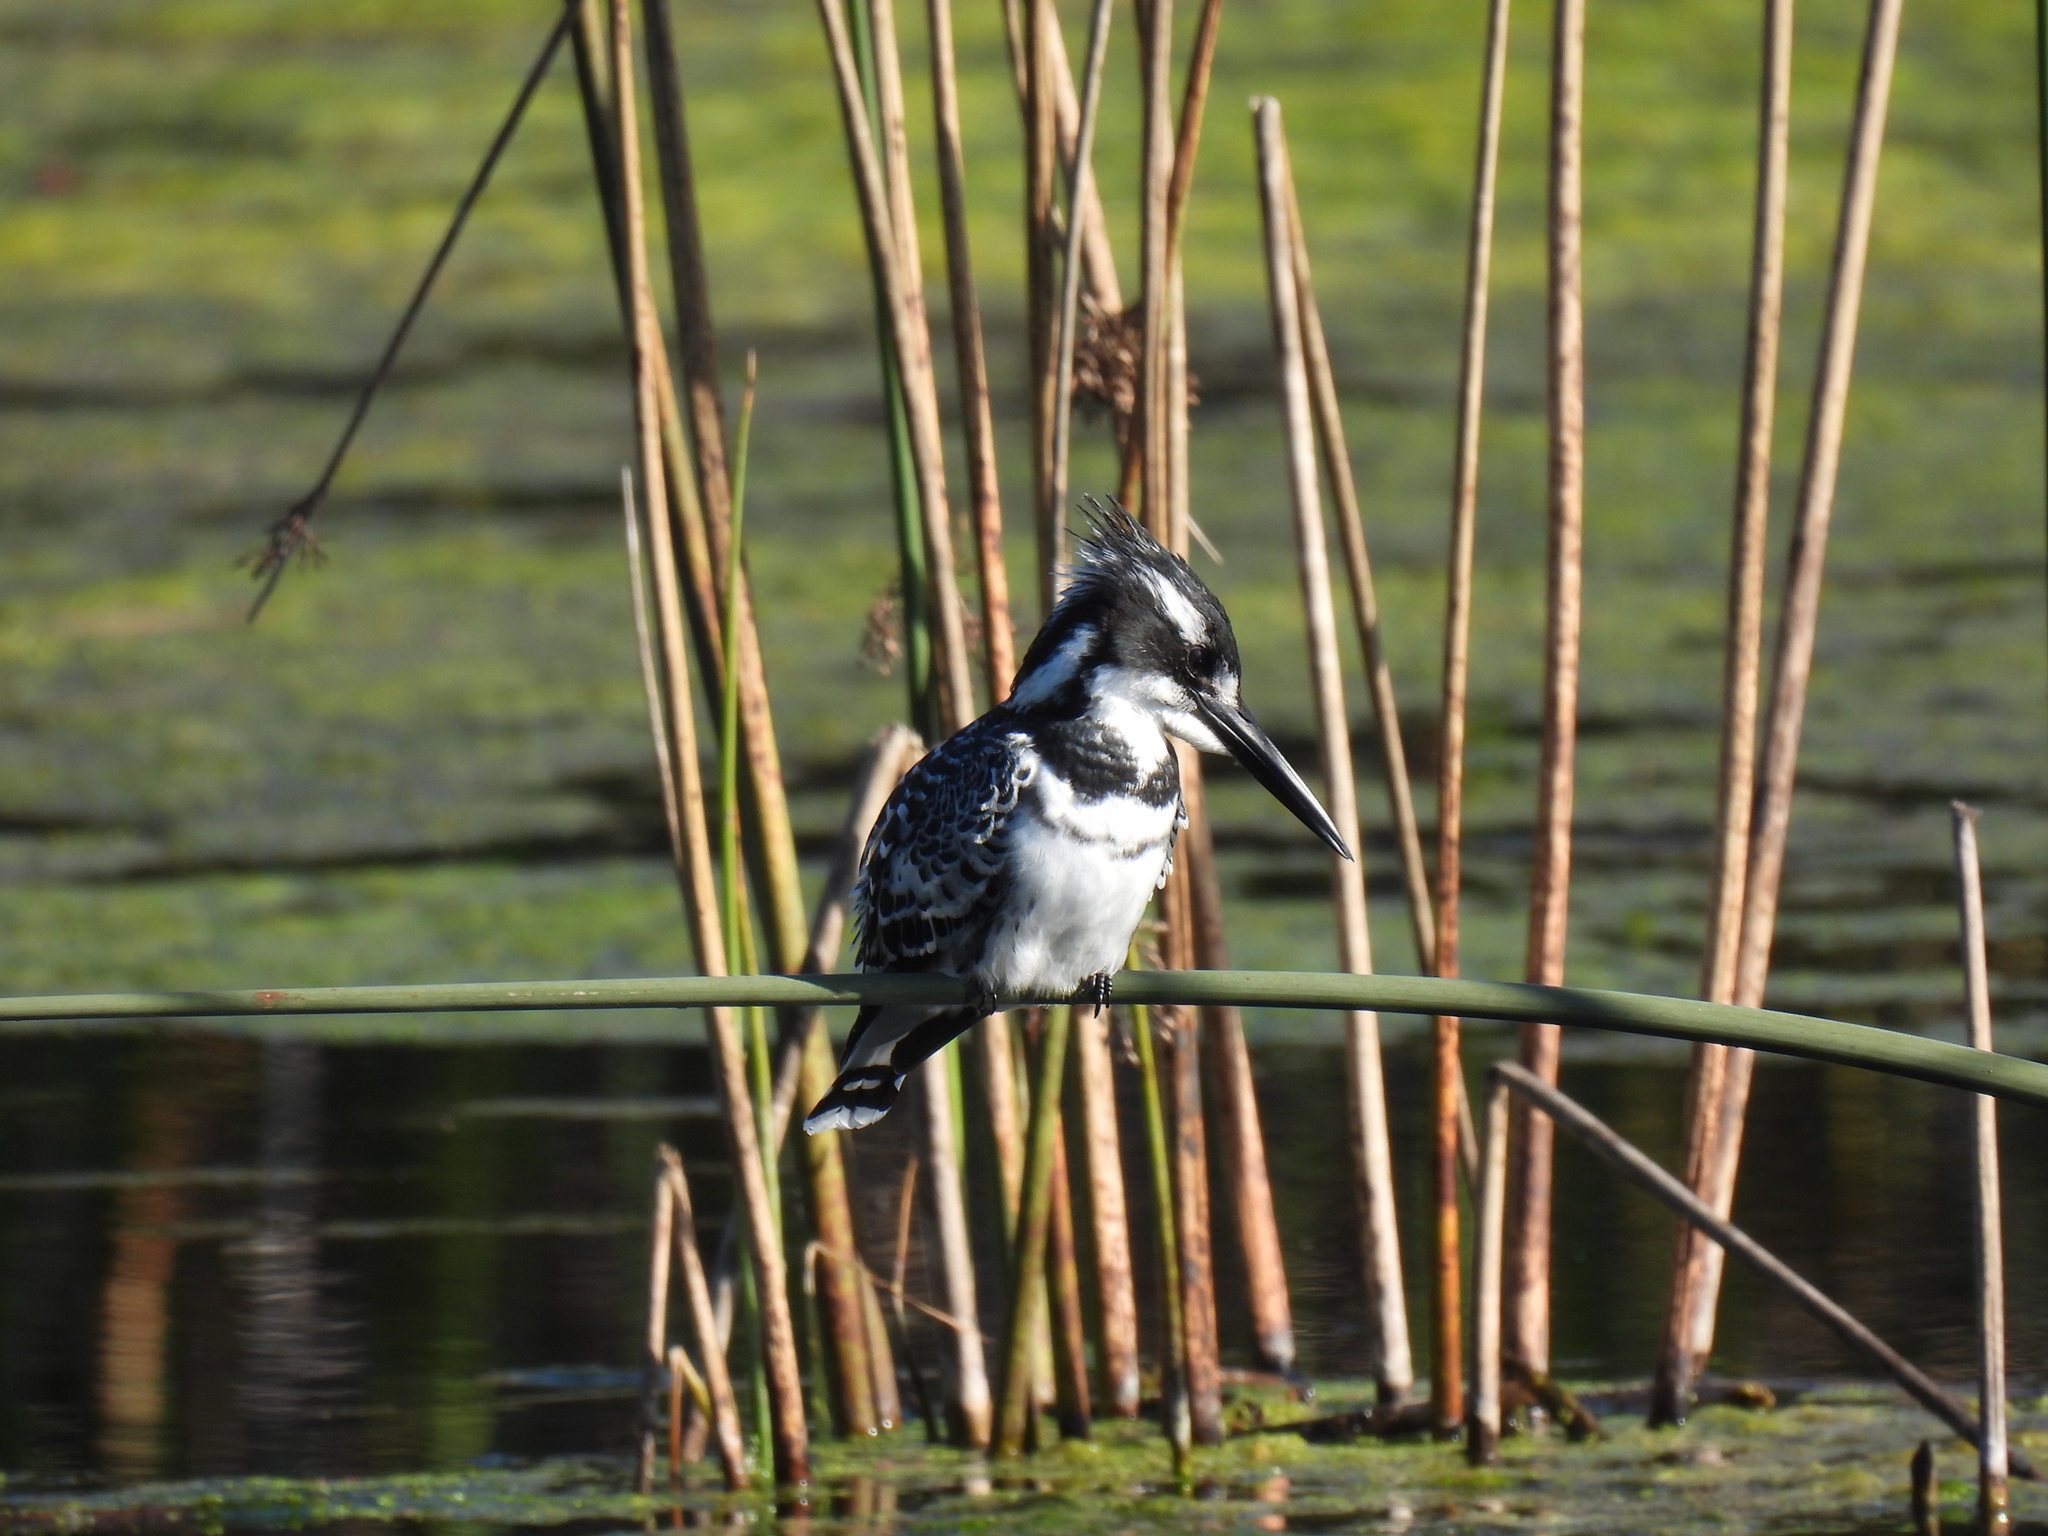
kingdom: Animalia
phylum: Chordata
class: Aves
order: Coraciiformes
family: Alcedinidae
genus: Ceryle
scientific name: Ceryle rudis
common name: Pied kingfisher
